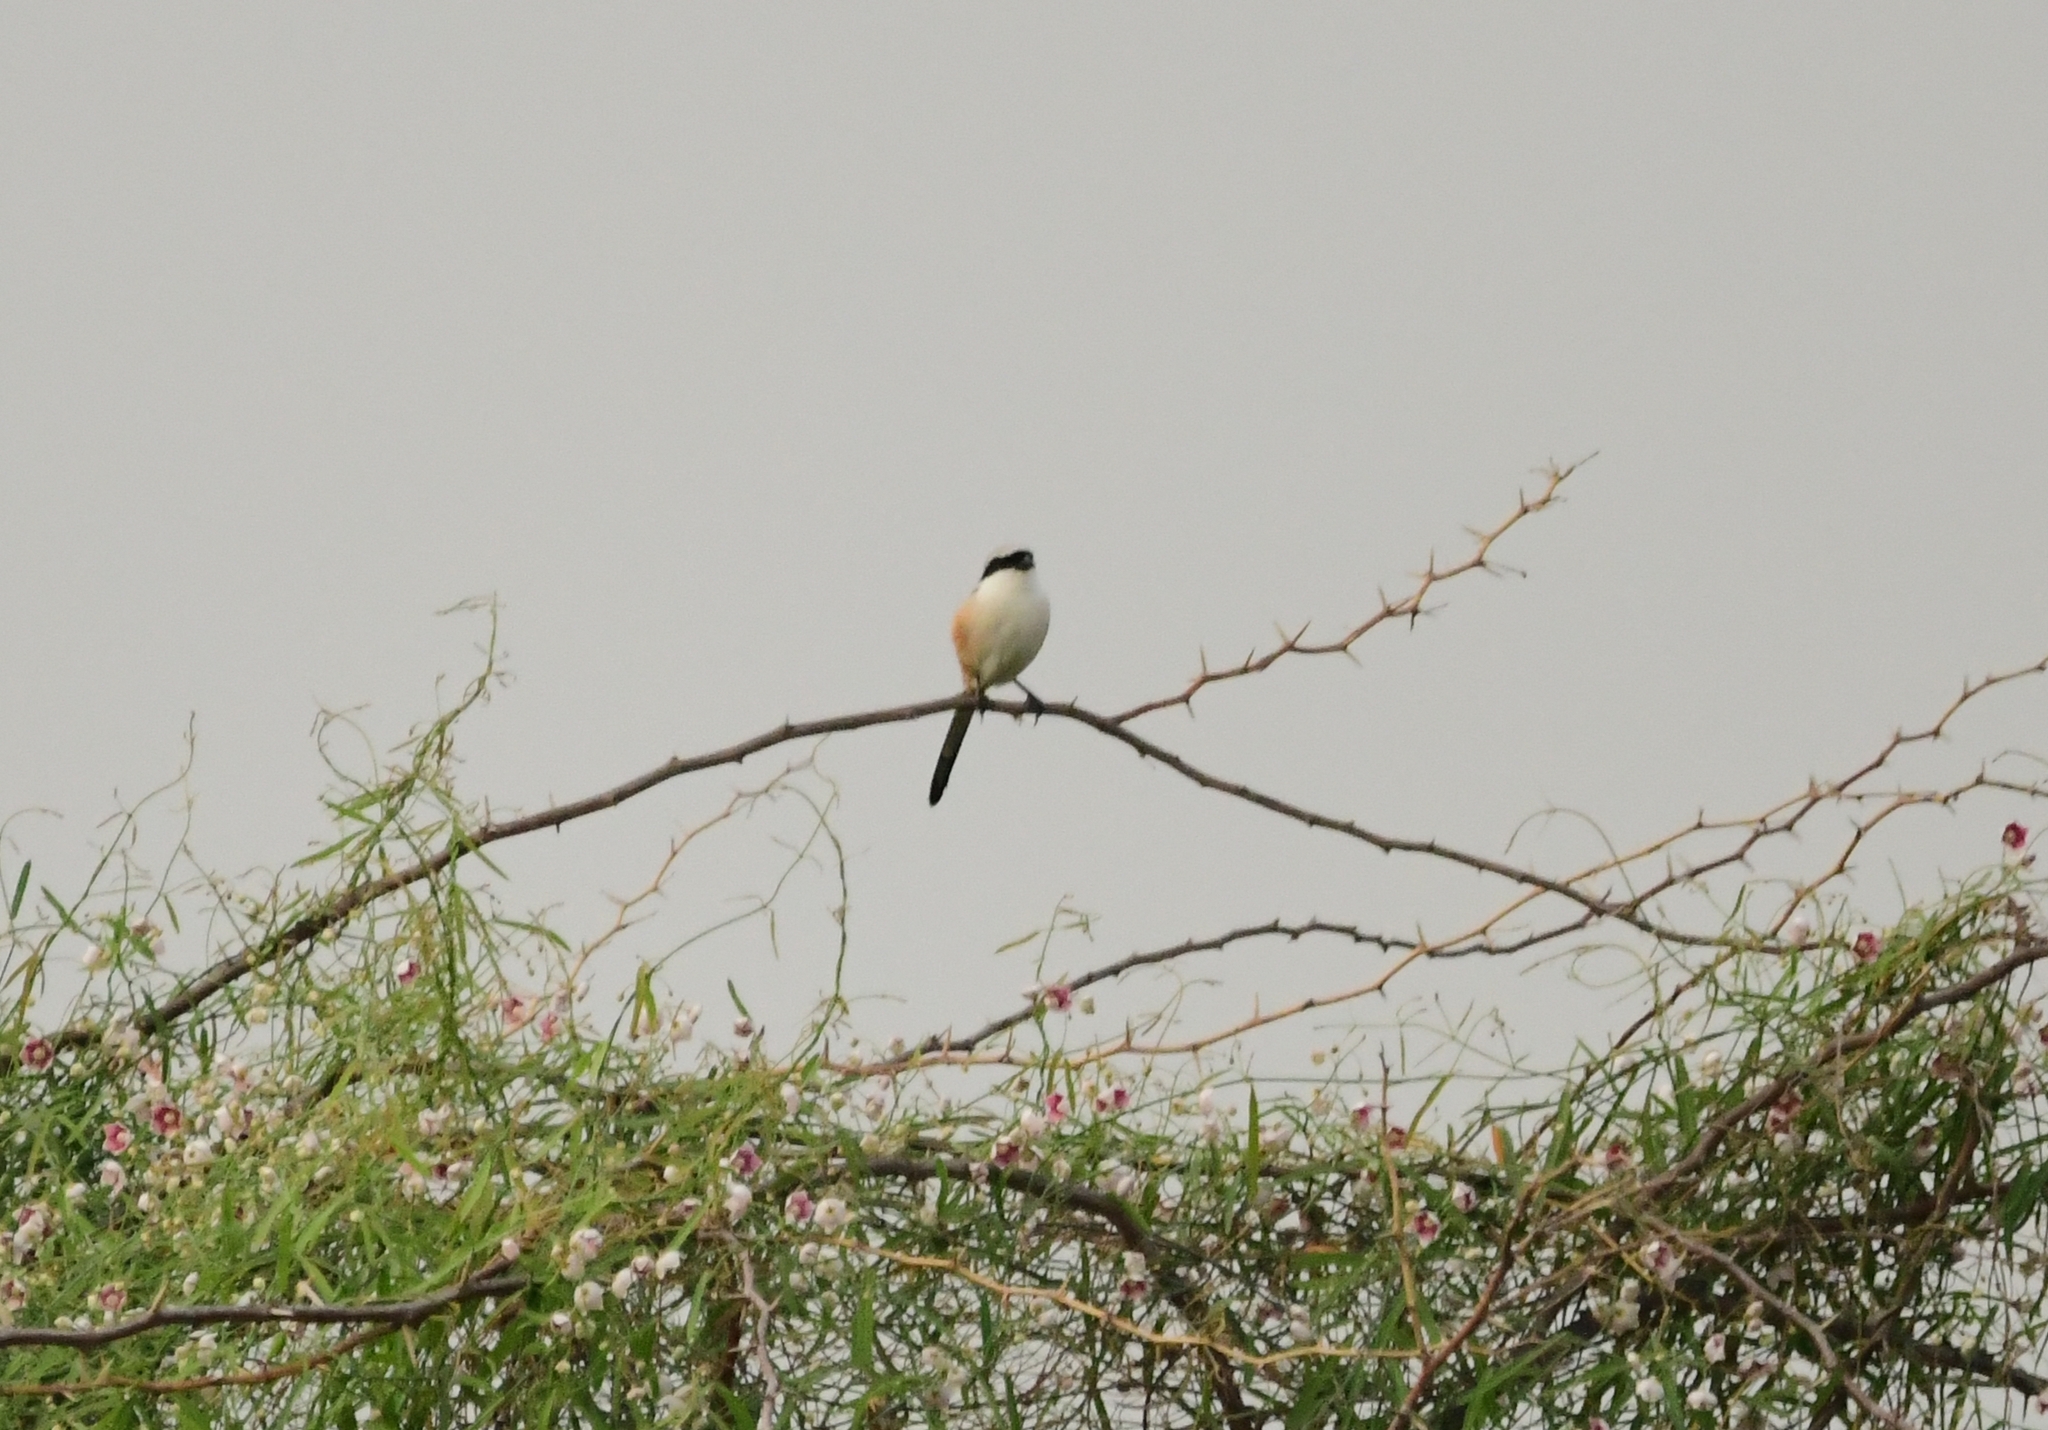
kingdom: Animalia
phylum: Chordata
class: Aves
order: Passeriformes
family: Laniidae
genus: Lanius
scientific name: Lanius schach
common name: Long-tailed shrike
